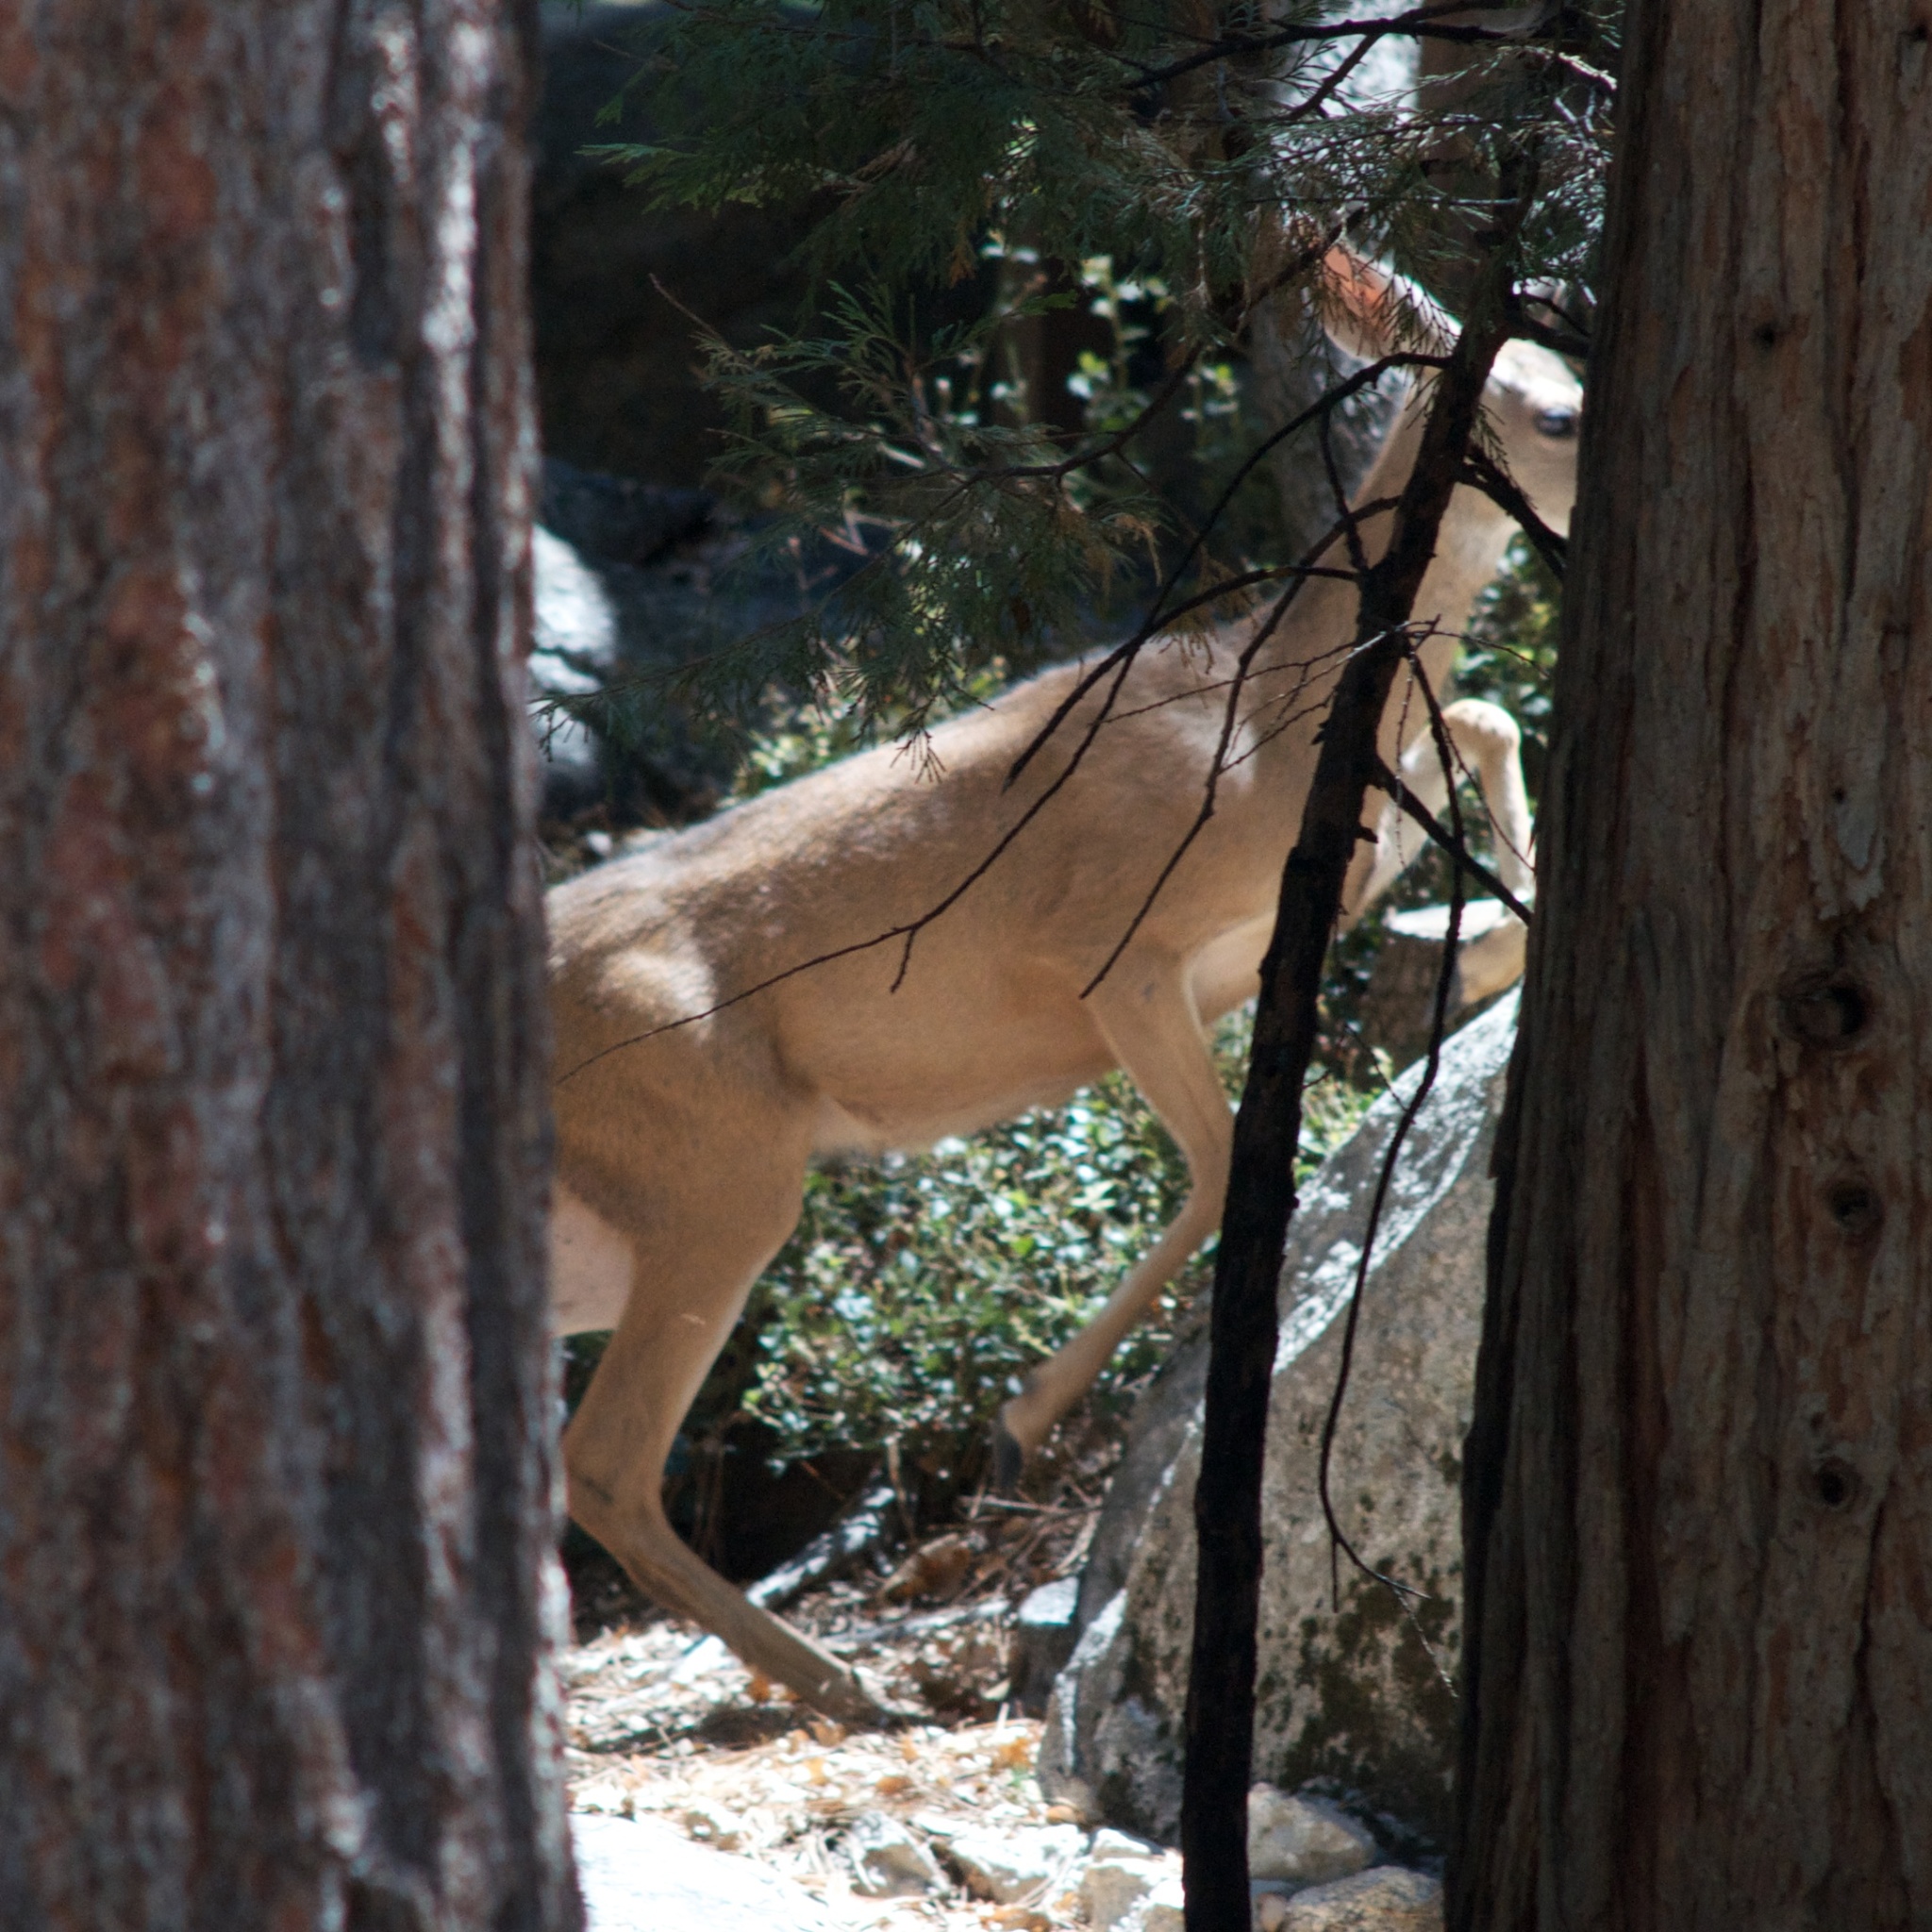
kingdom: Animalia
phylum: Chordata
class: Mammalia
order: Artiodactyla
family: Cervidae
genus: Odocoileus
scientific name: Odocoileus hemionus
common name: Mule deer
